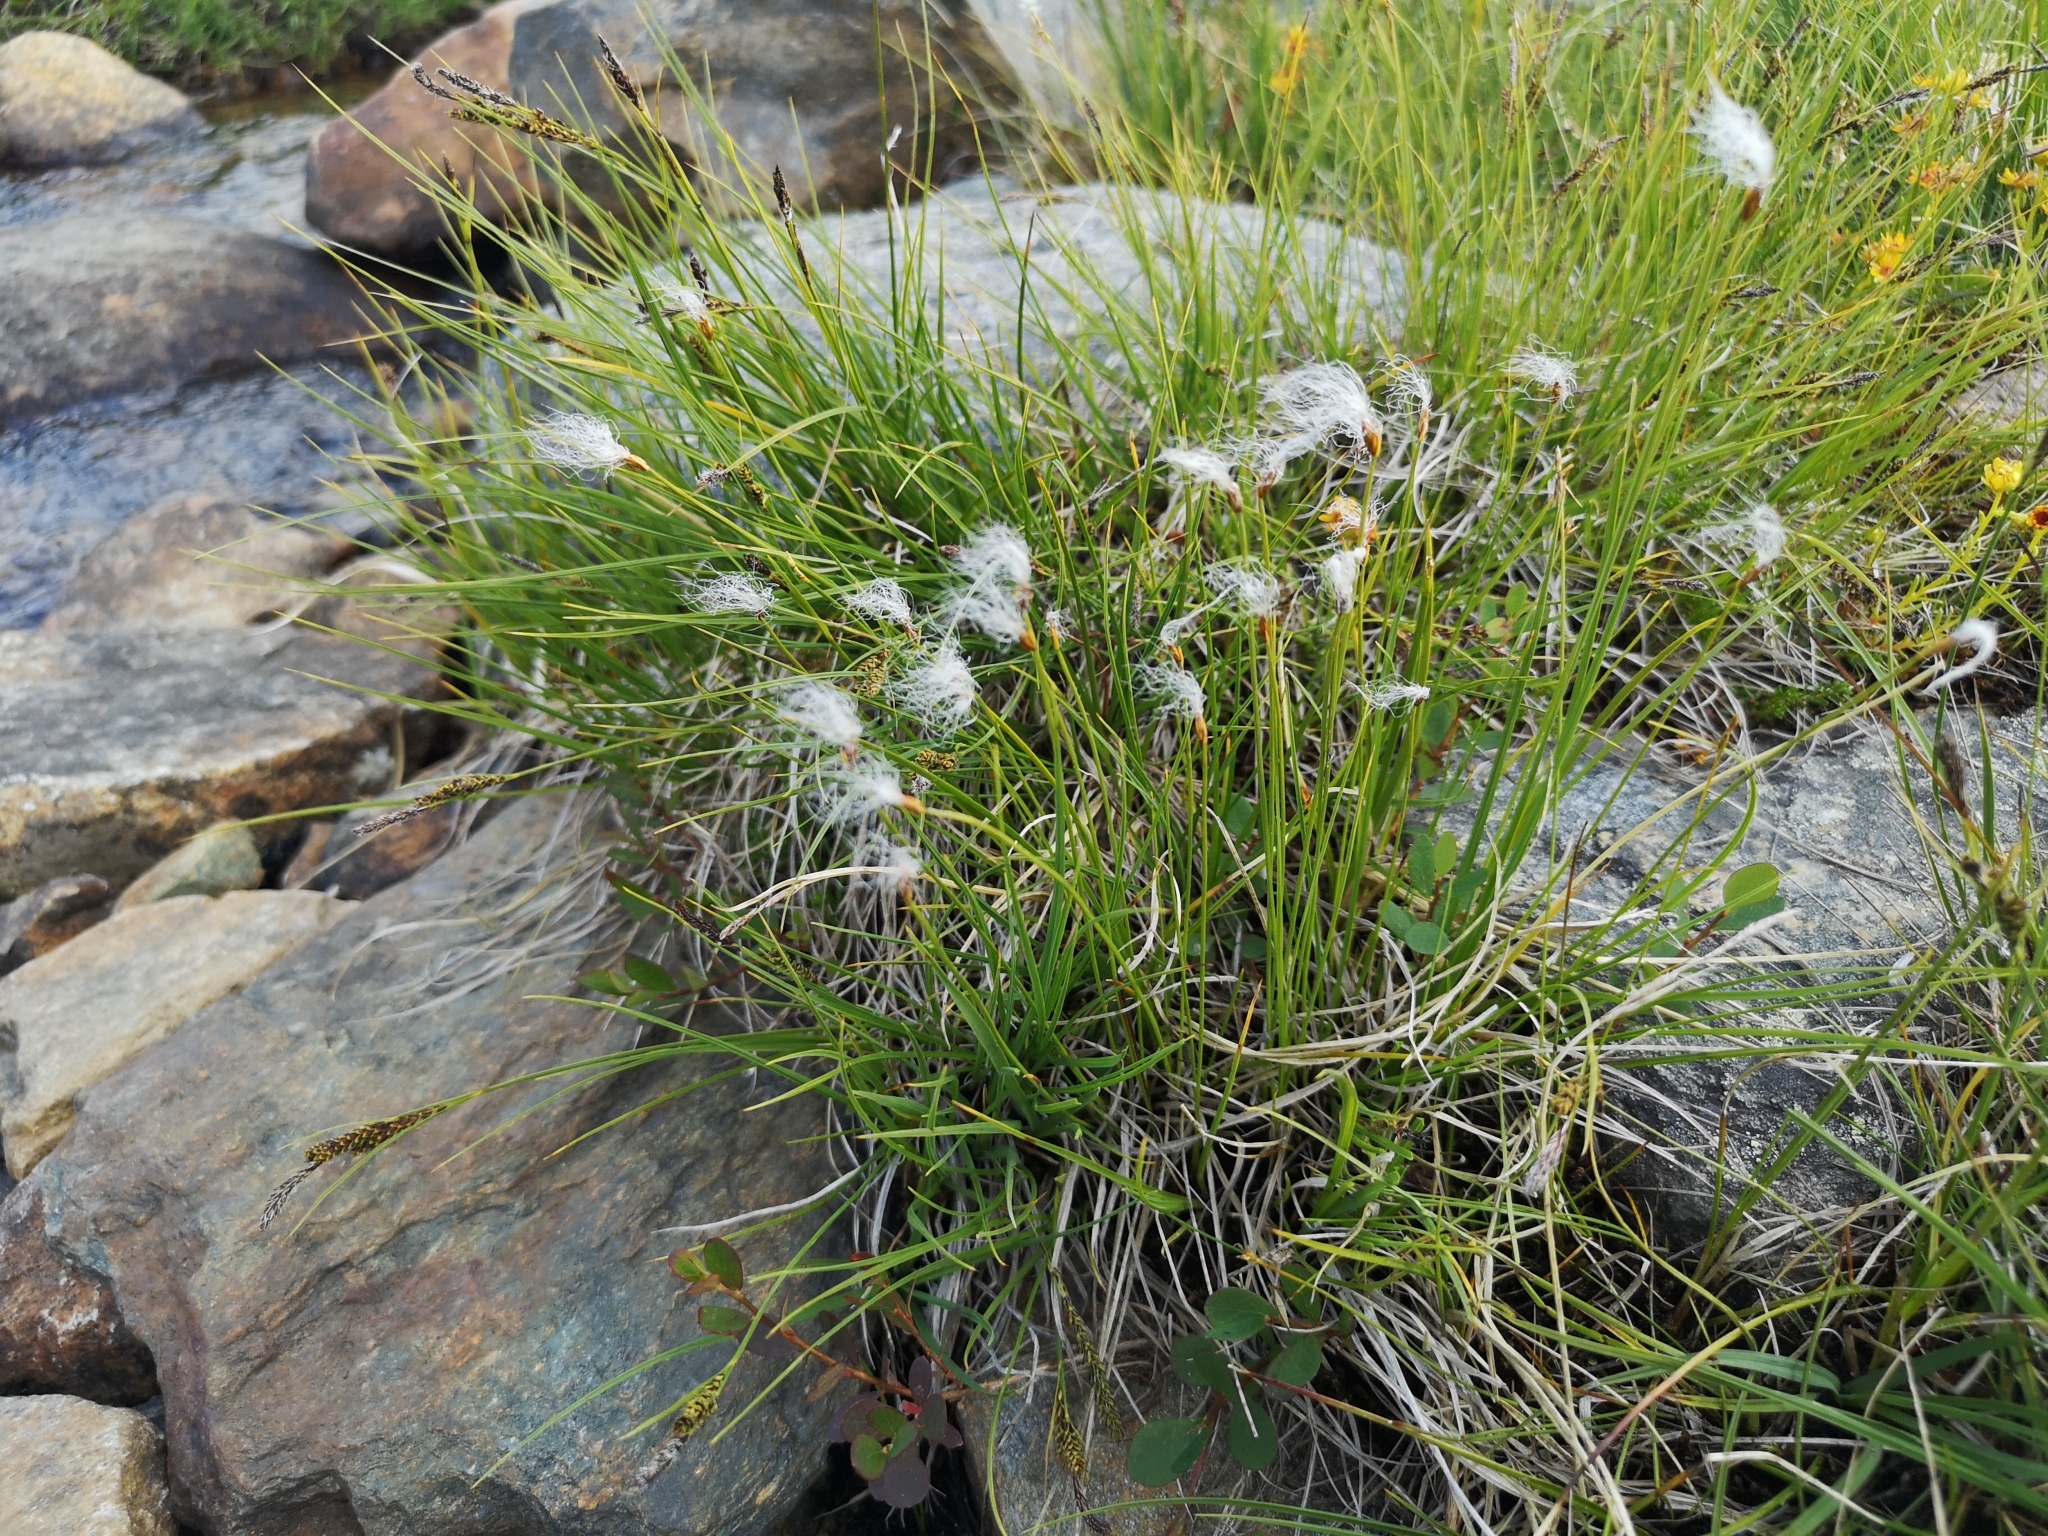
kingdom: Plantae
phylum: Tracheophyta
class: Liliopsida
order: Poales
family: Cyperaceae
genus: Trichophorum
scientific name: Trichophorum alpinum
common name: Alpine bulrush
